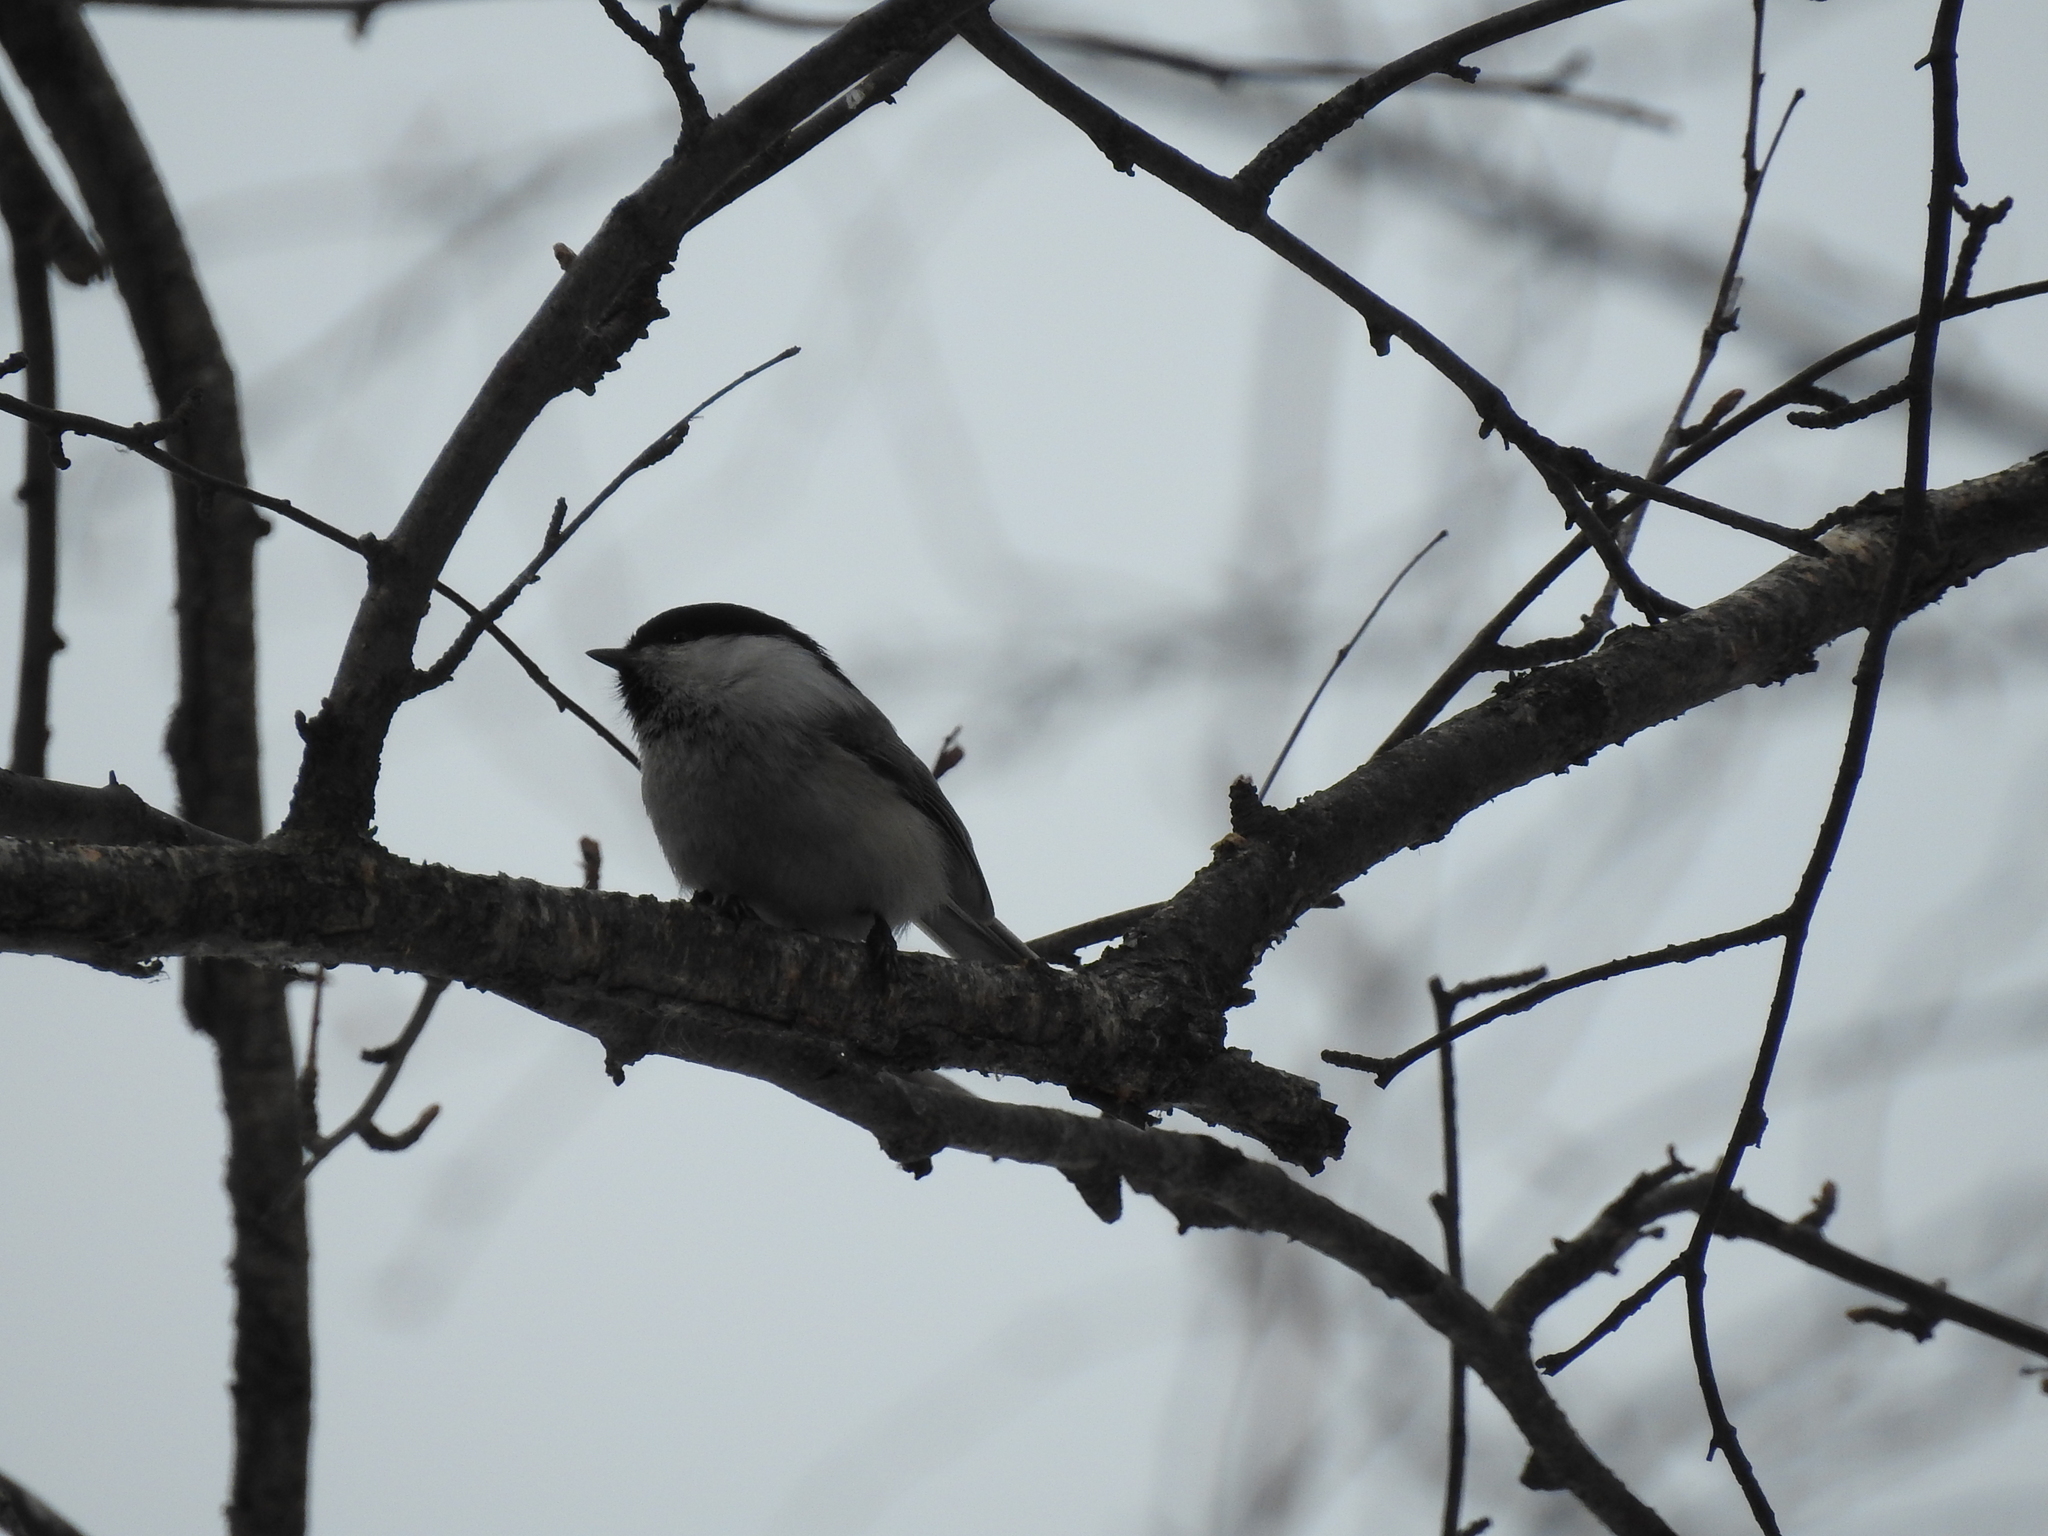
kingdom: Animalia
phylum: Chordata
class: Aves
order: Passeriformes
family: Paridae
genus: Poecile
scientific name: Poecile montanus
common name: Willow tit
